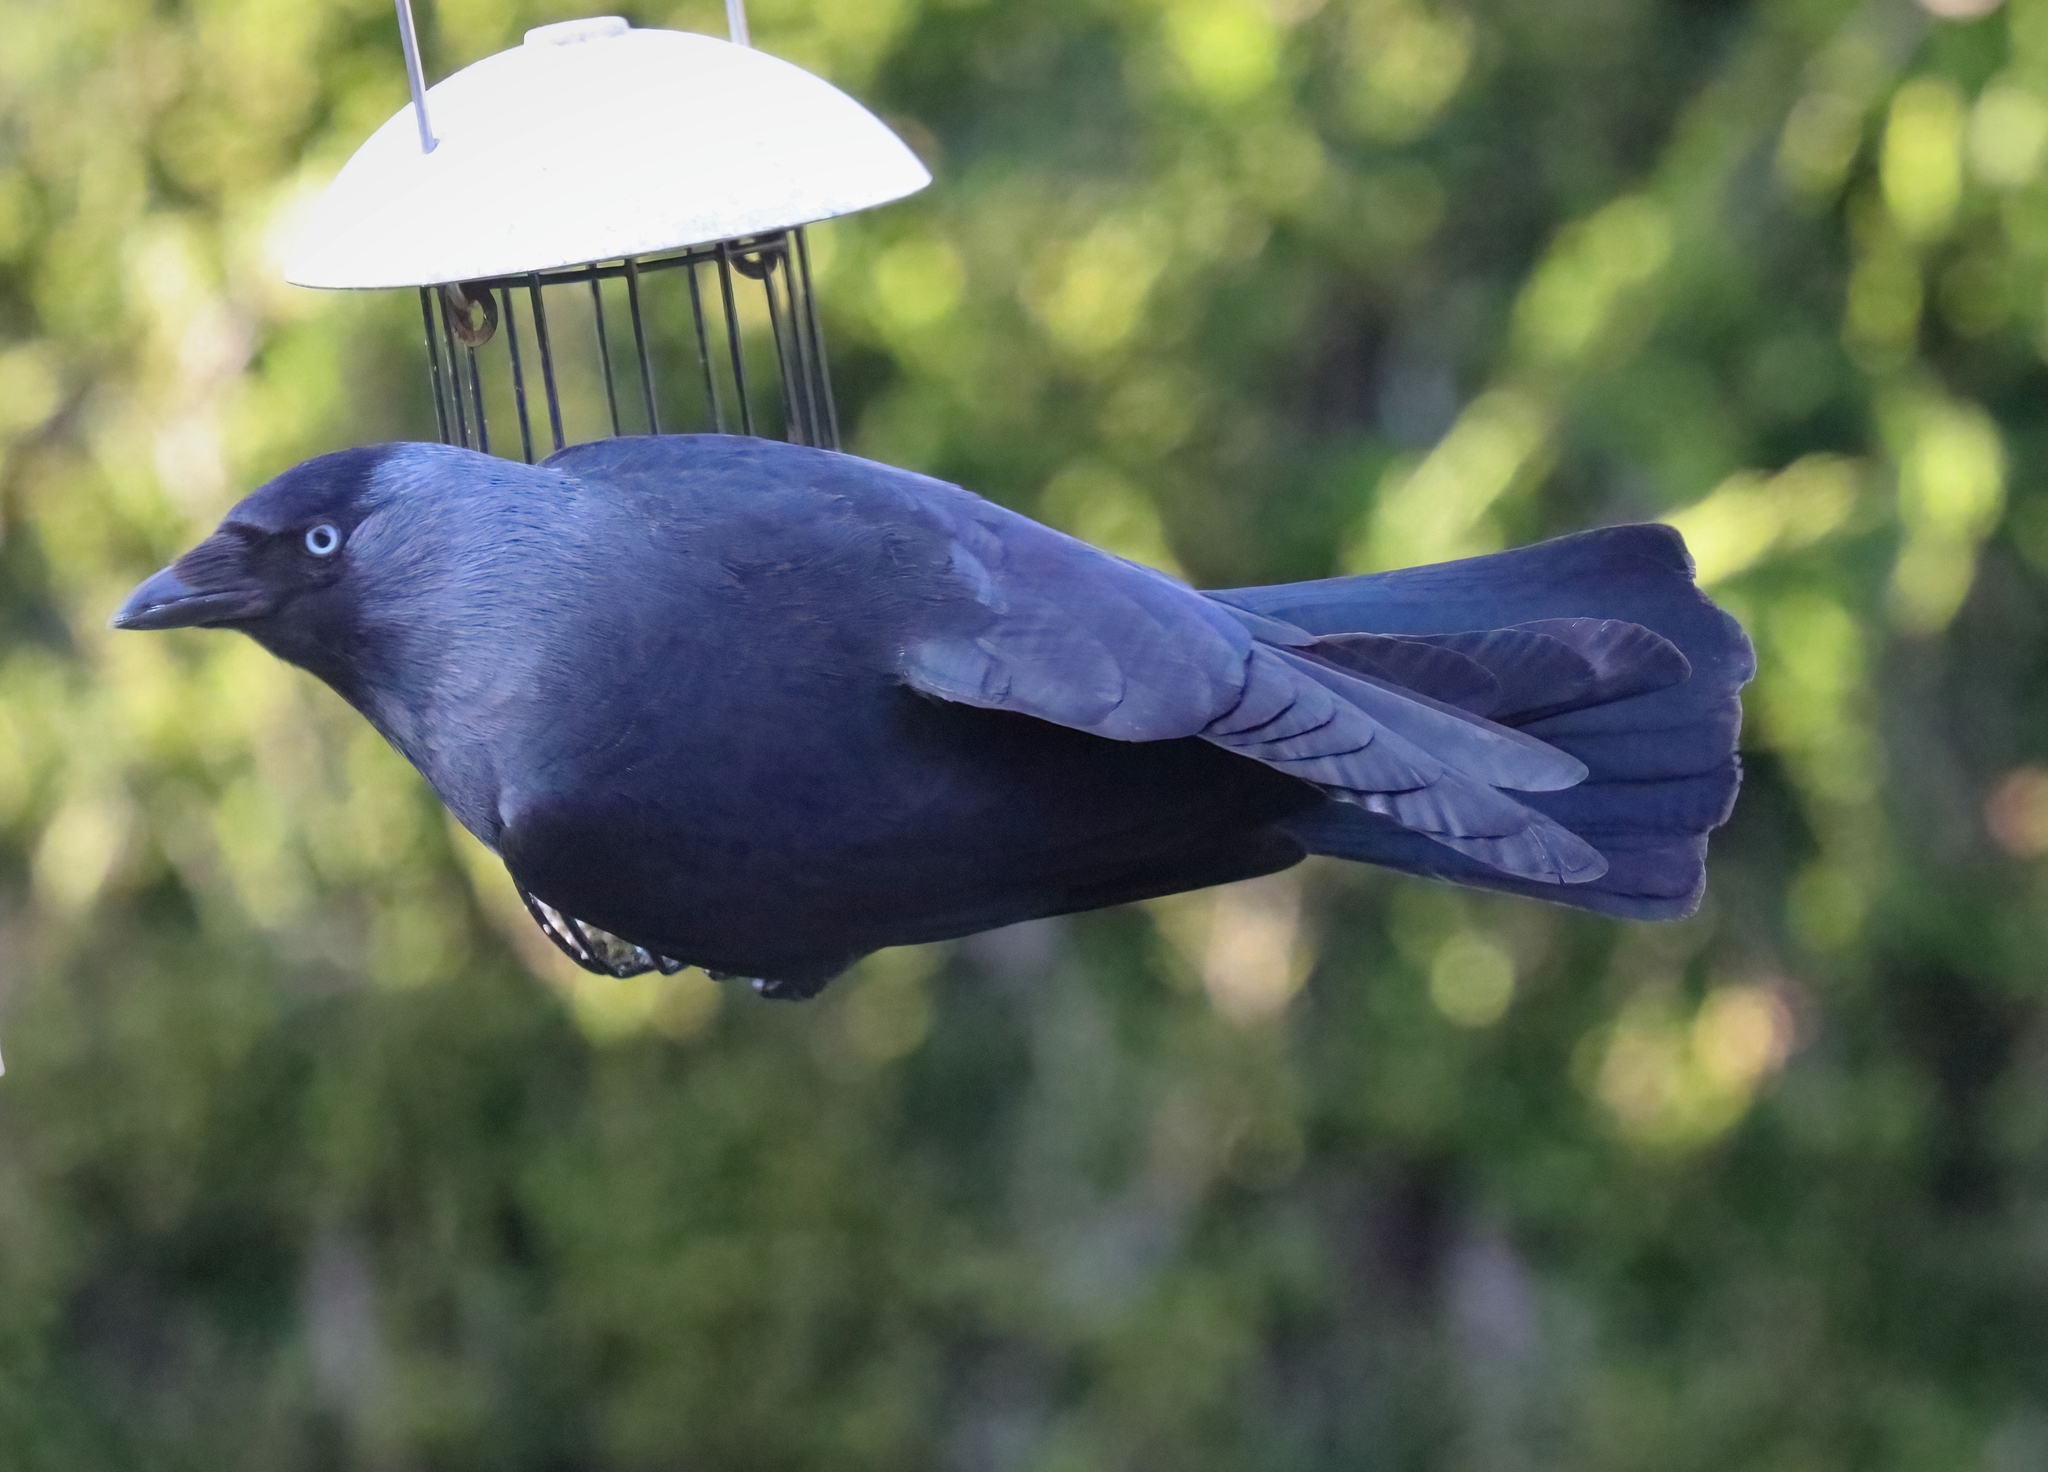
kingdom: Animalia
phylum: Chordata
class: Aves
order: Passeriformes
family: Corvidae
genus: Coloeus
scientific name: Coloeus monedula
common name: Western jackdaw
